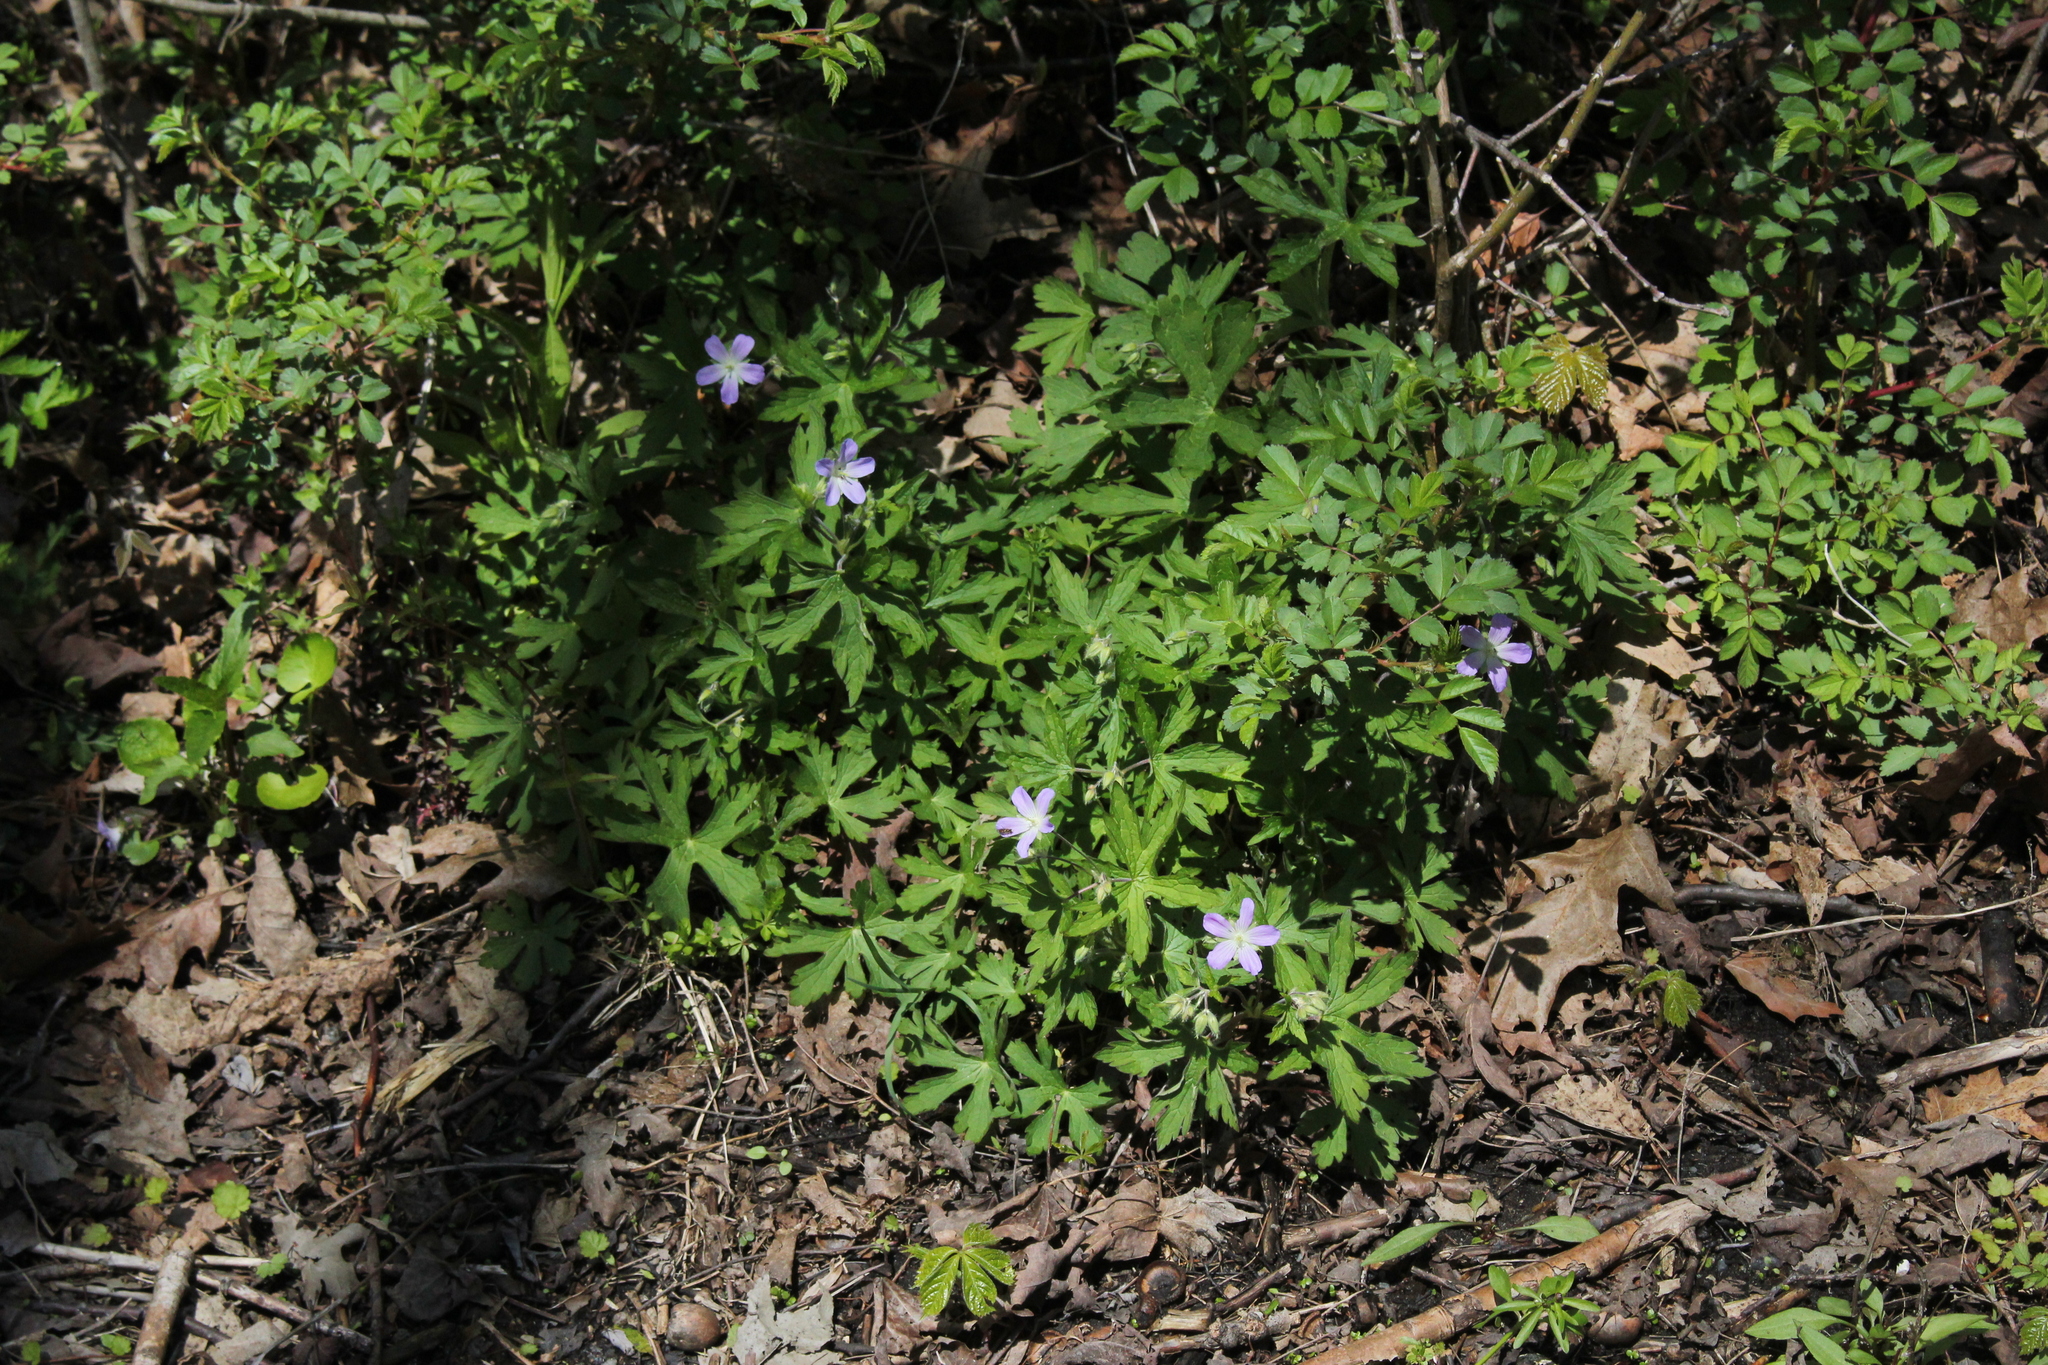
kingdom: Plantae
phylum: Tracheophyta
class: Magnoliopsida
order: Geraniales
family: Geraniaceae
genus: Geranium
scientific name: Geranium maculatum
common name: Spotted geranium
